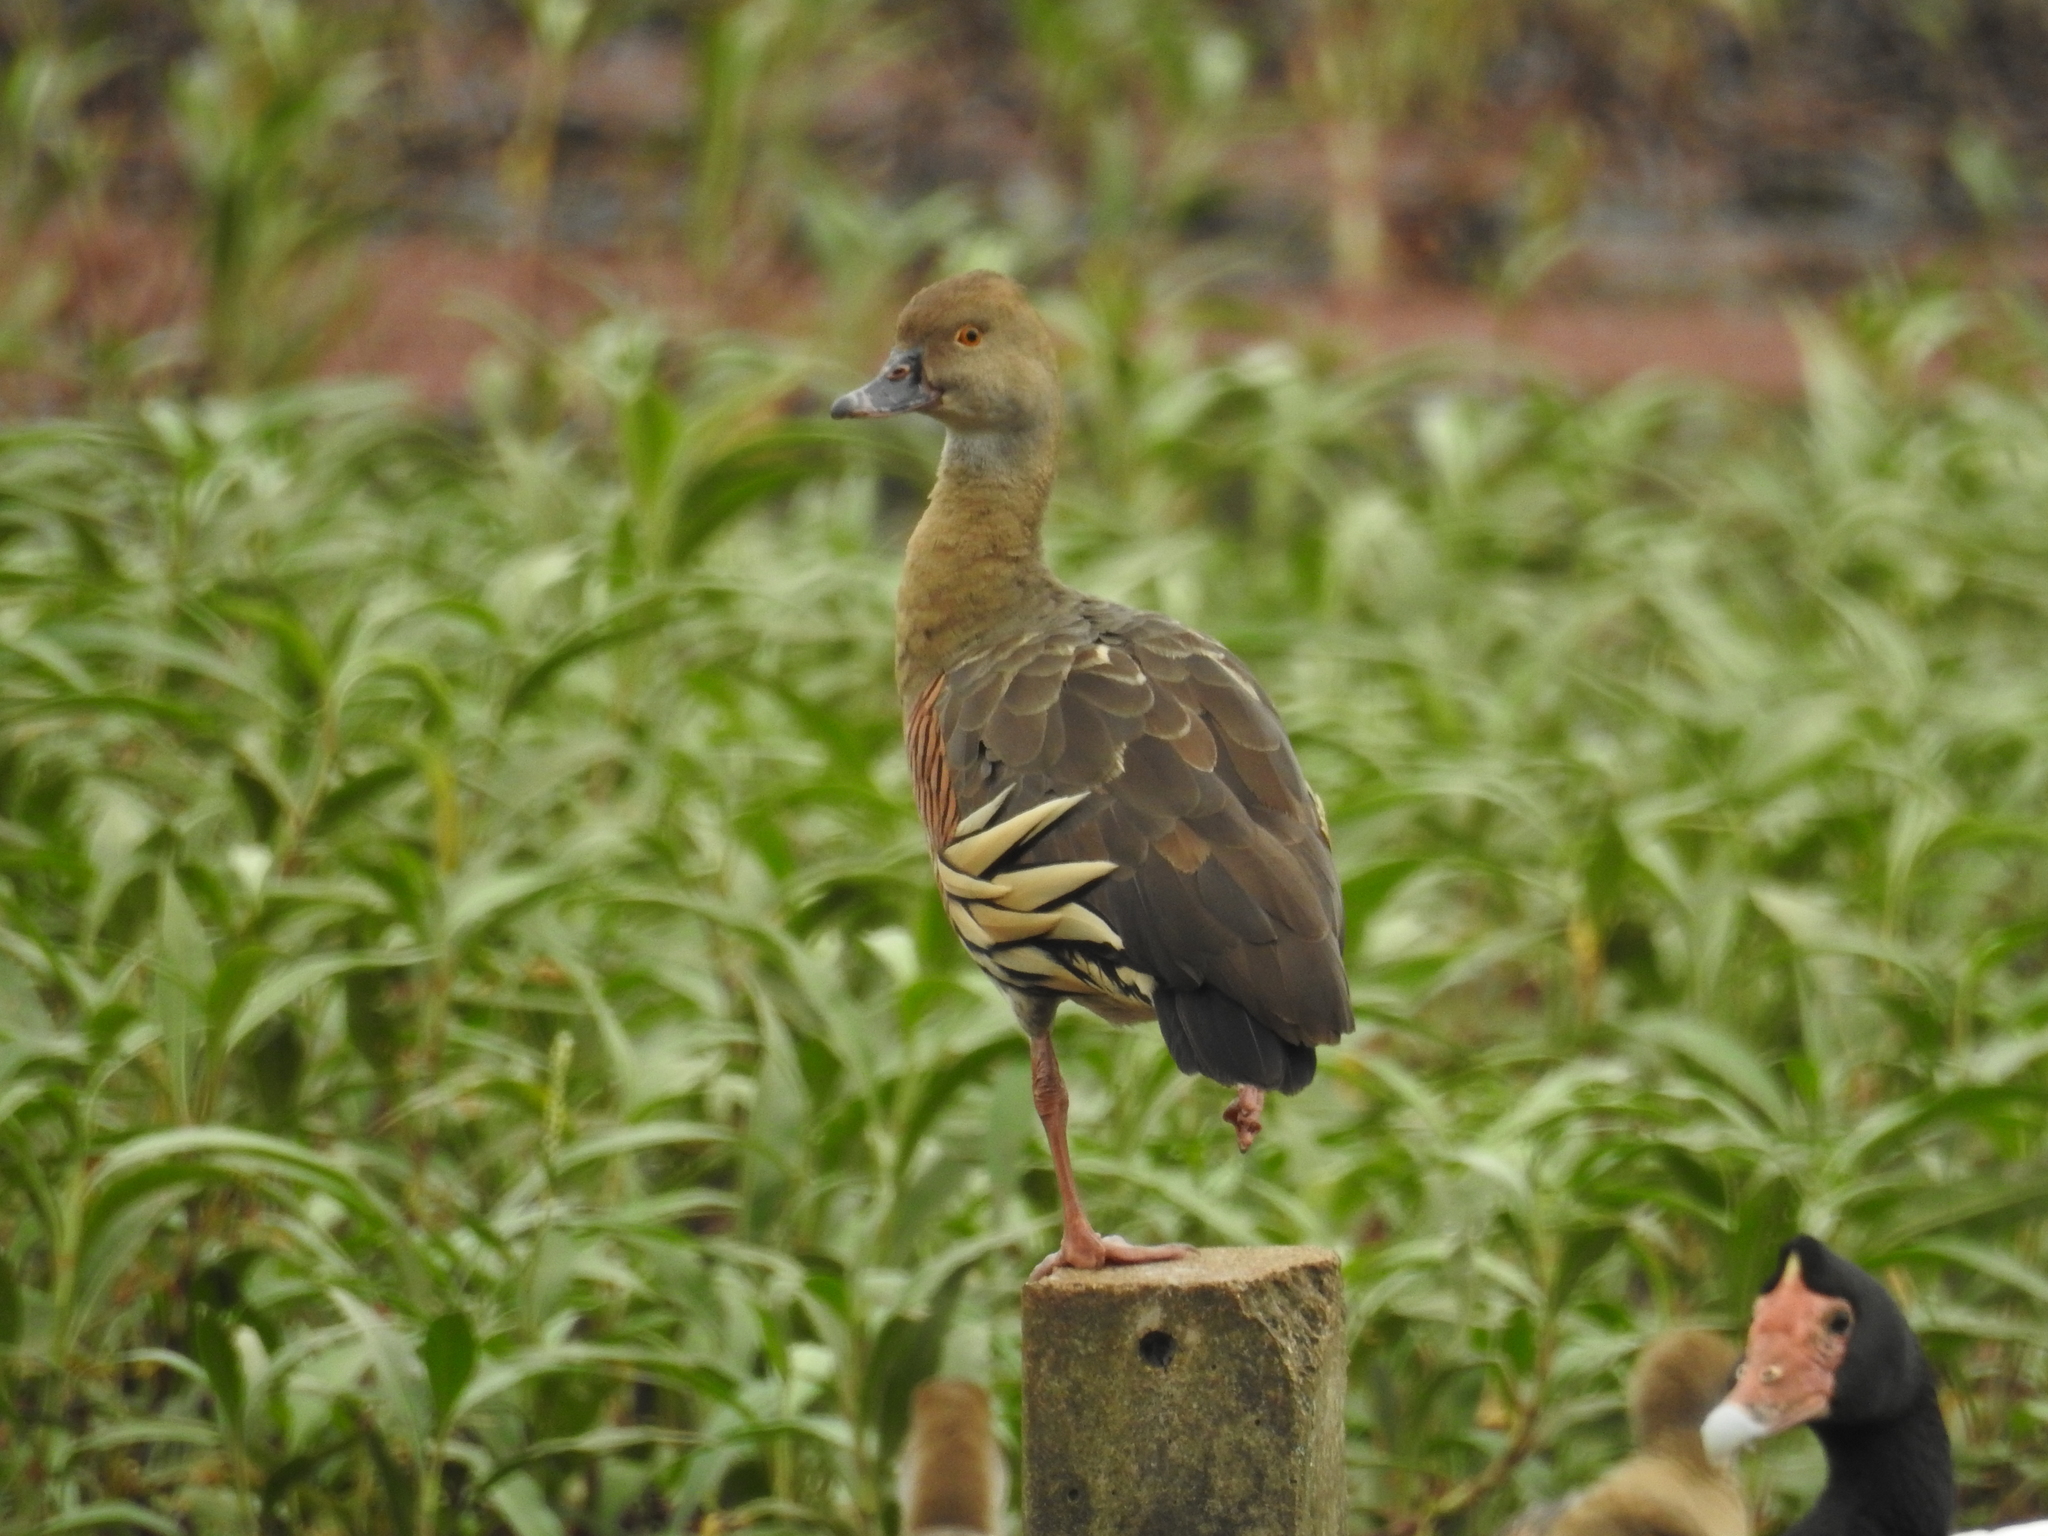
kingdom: Animalia
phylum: Chordata
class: Aves
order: Anseriformes
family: Anatidae
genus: Dendrocygna
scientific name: Dendrocygna eytoni
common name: Plumed whistling-duck
